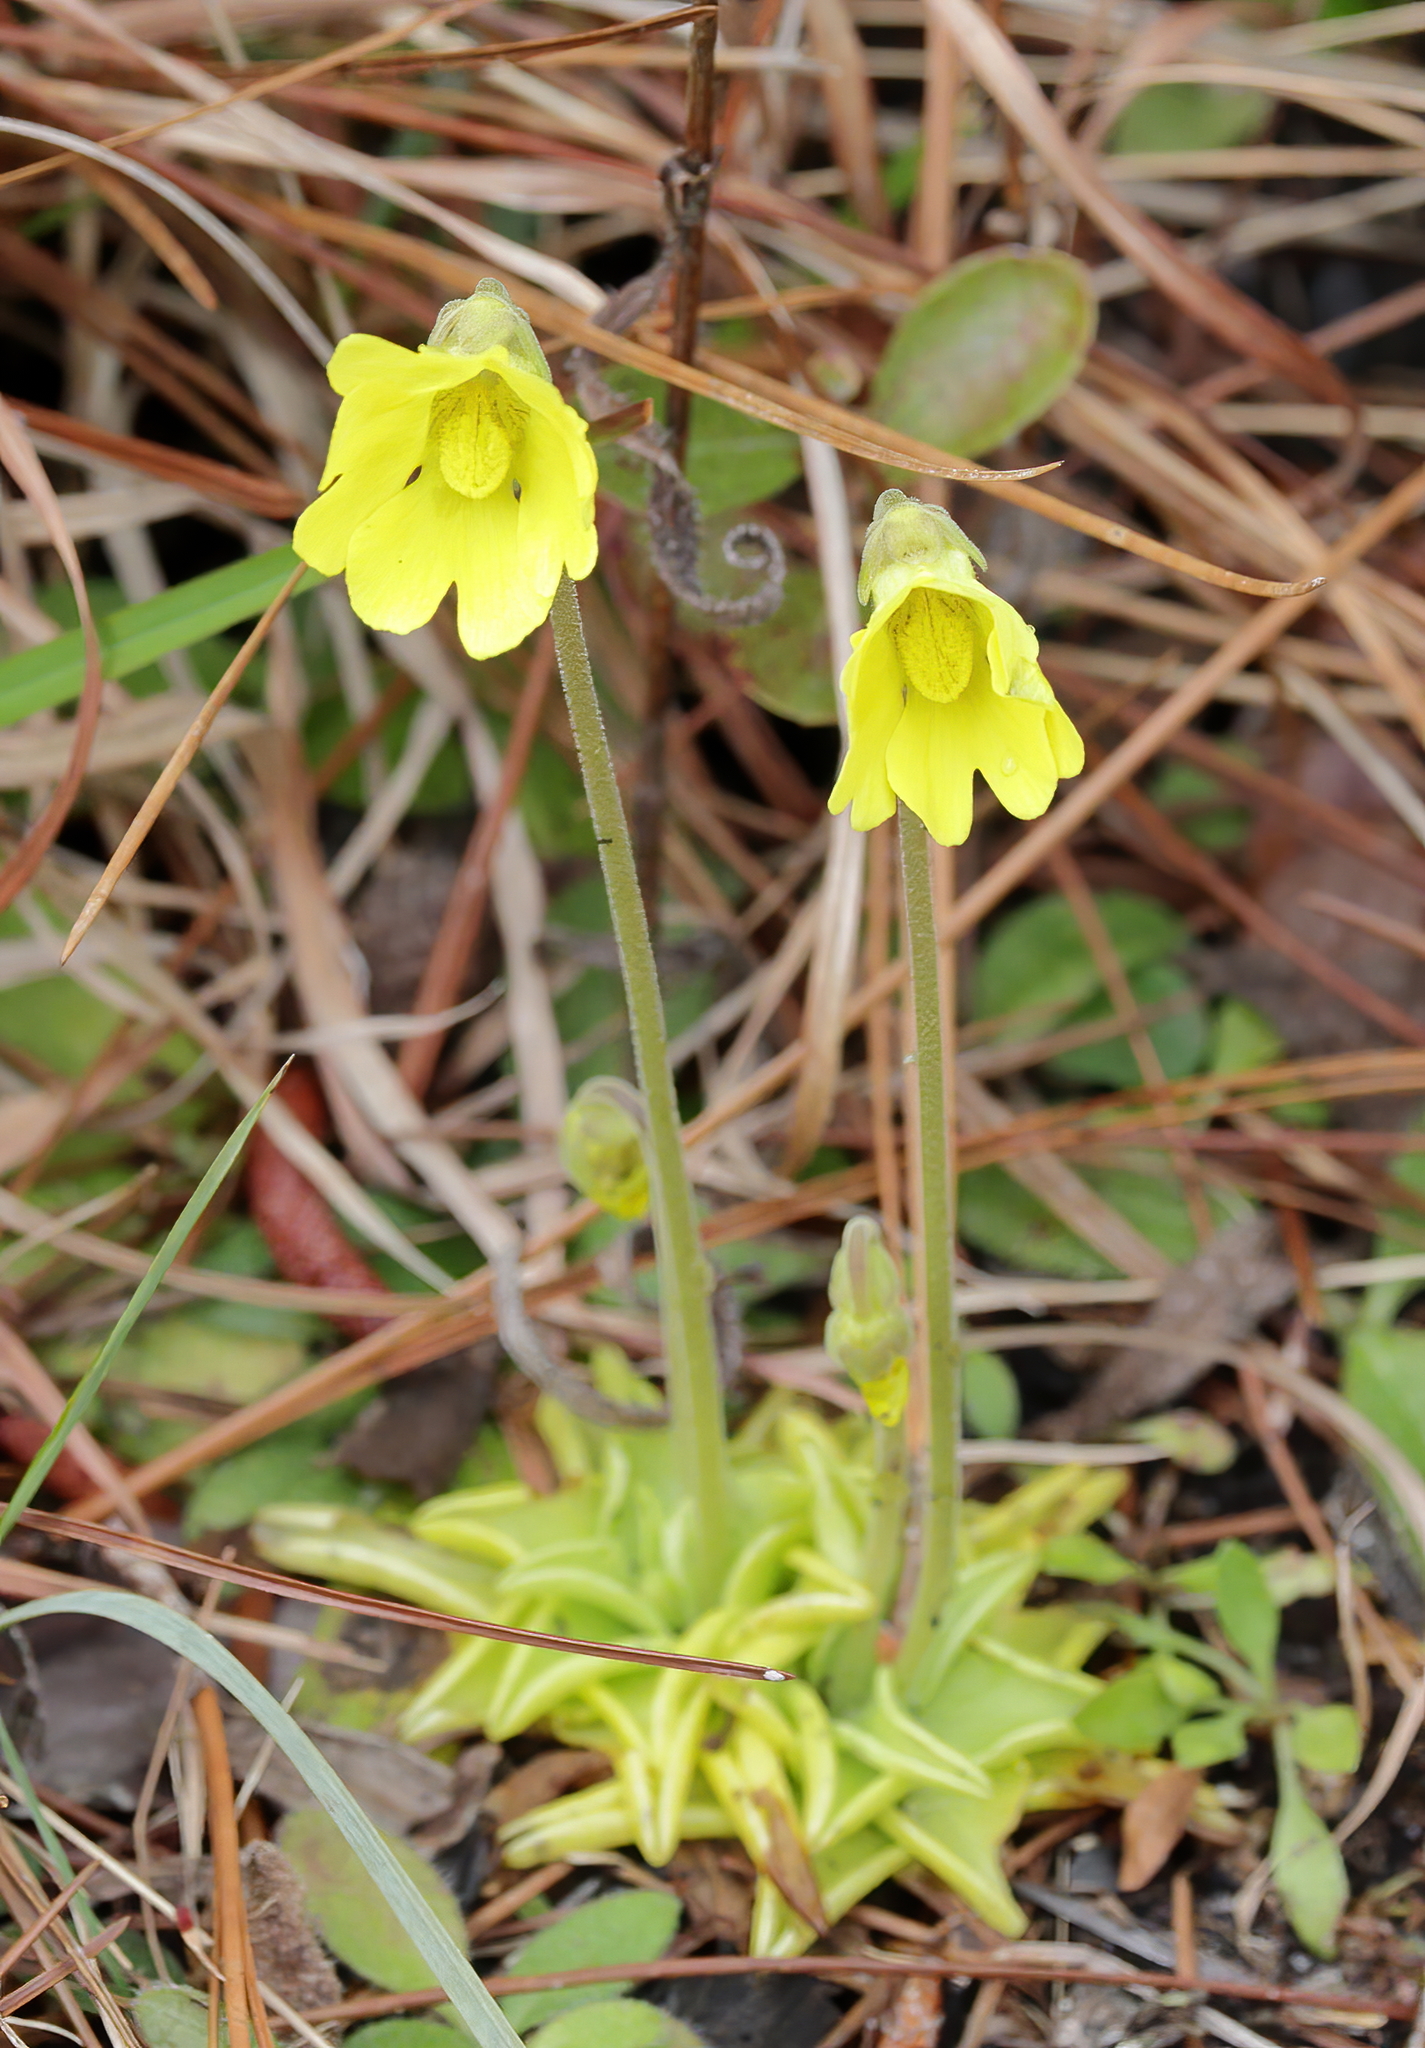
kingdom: Plantae
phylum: Tracheophyta
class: Magnoliopsida
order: Lamiales
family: Lentibulariaceae
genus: Pinguicula
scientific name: Pinguicula lutea
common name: Yellow butterwort
